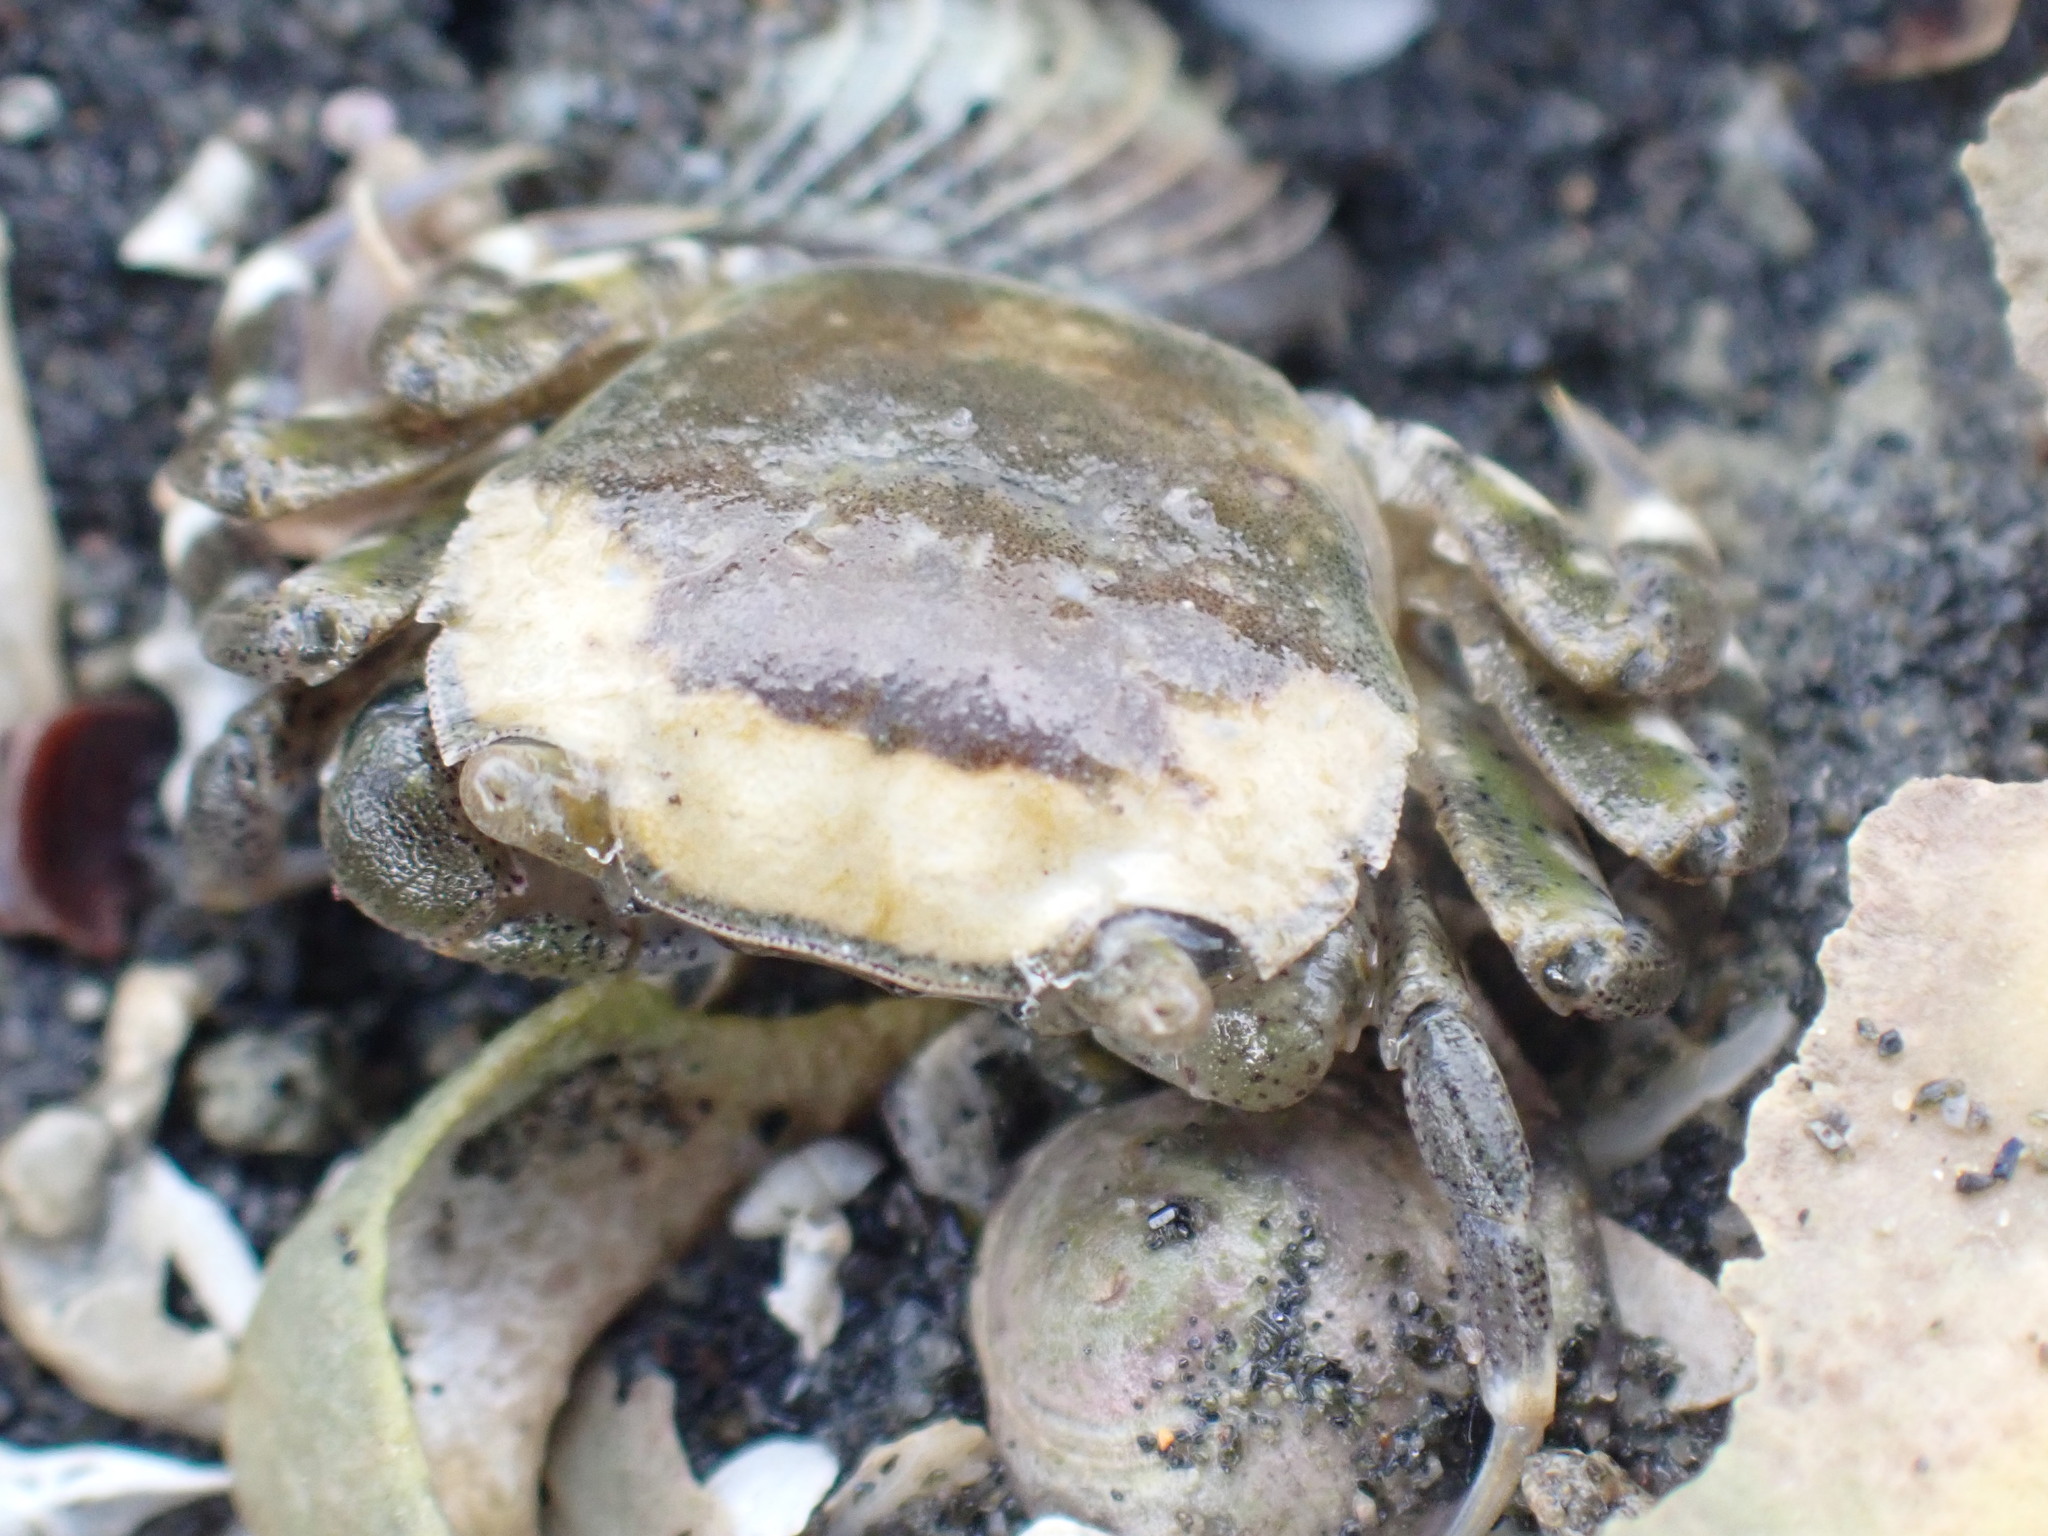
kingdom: Animalia
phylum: Arthropoda
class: Malacostraca
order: Decapoda
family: Varunidae
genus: Hemigrapsus
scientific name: Hemigrapsus crenulatus
